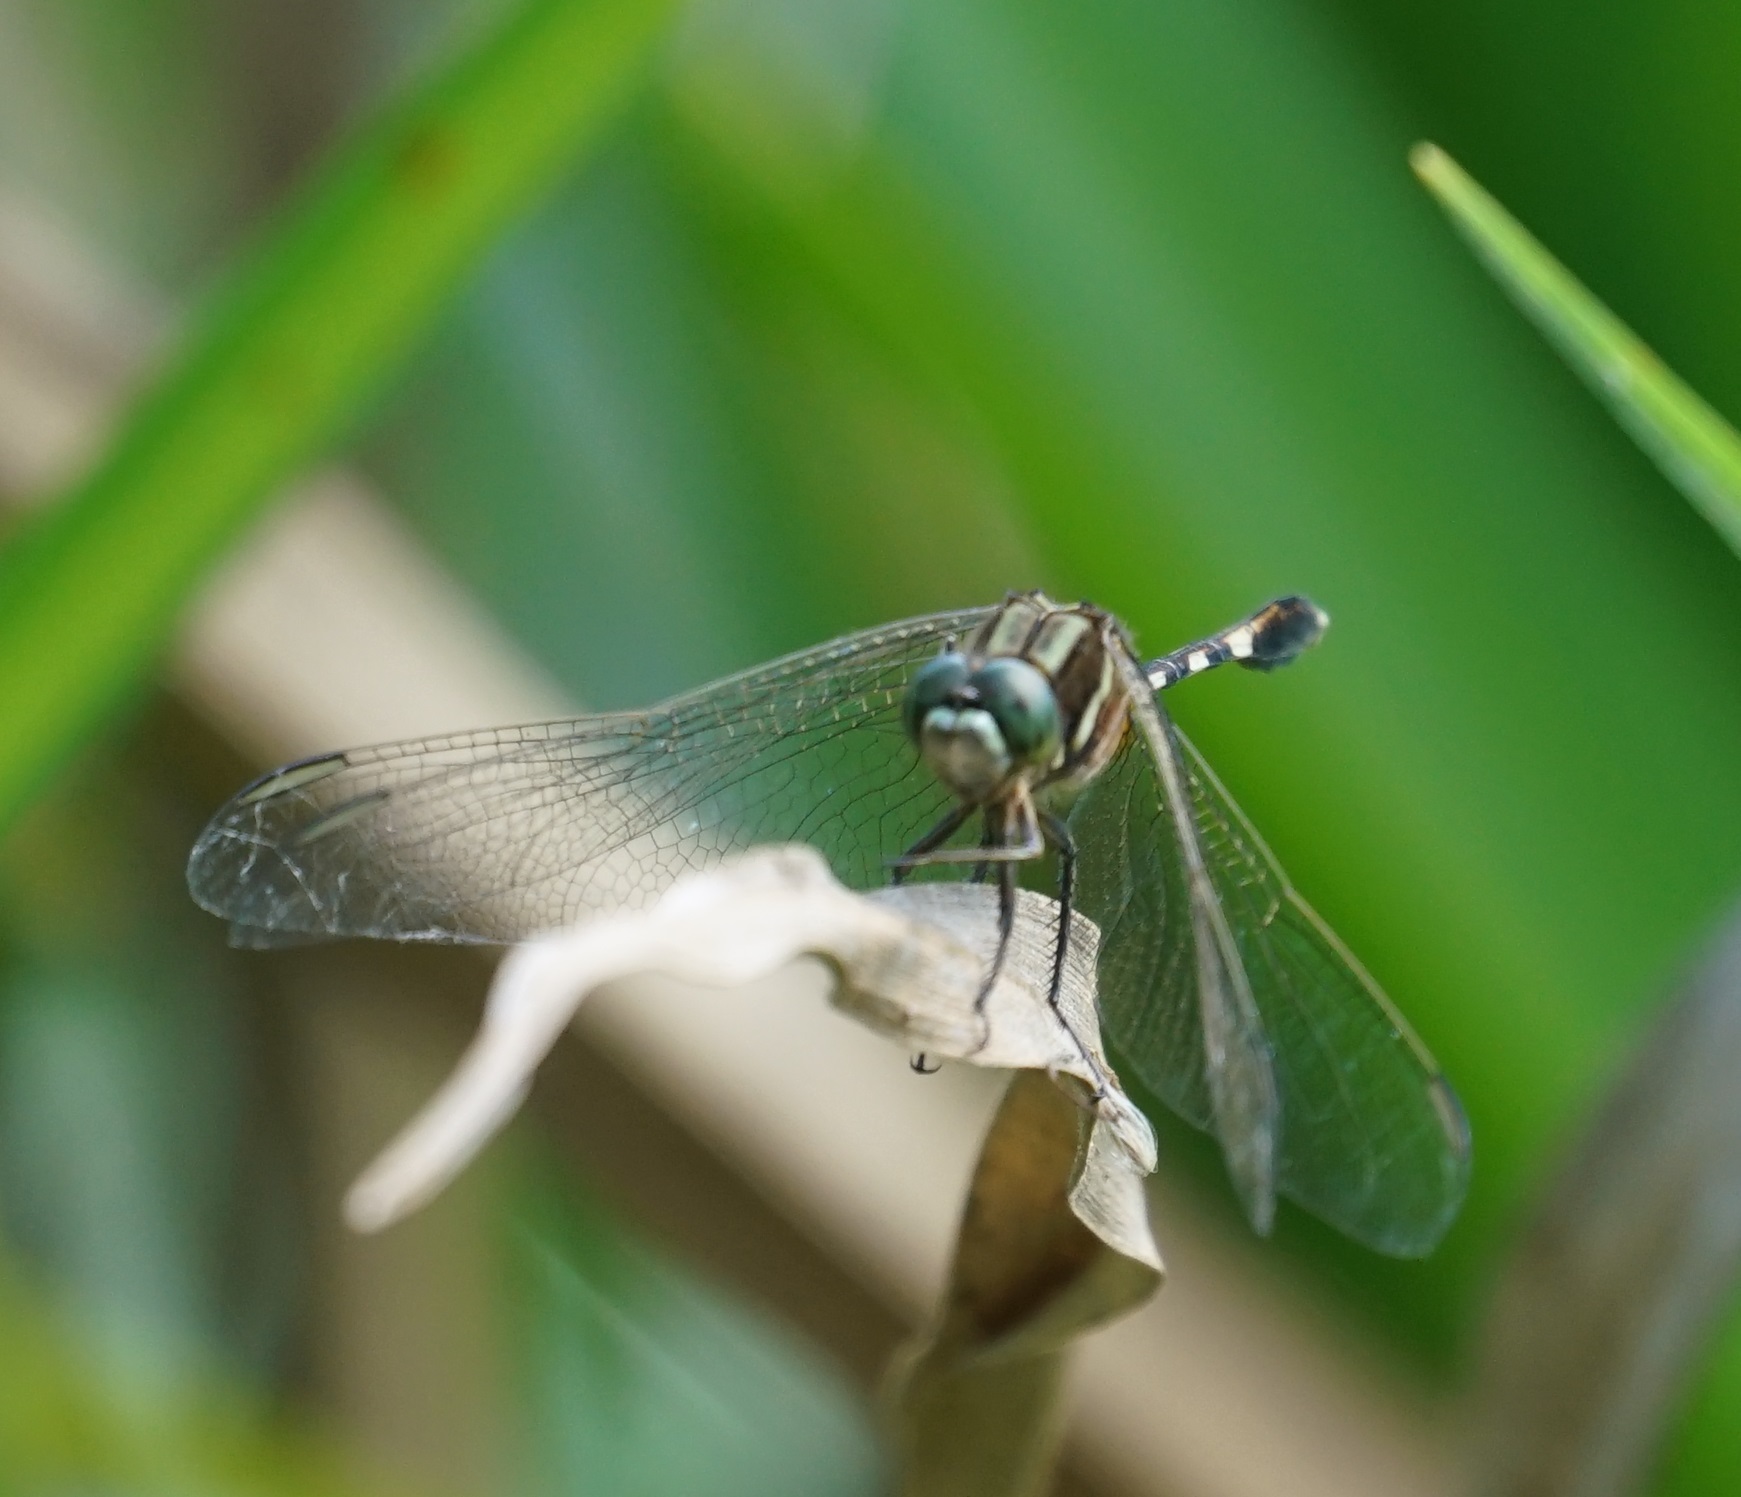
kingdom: Animalia
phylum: Arthropoda
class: Insecta
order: Odonata
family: Libellulidae
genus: Orthetrum
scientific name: Orthetrum sabina
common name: Slender skimmer
